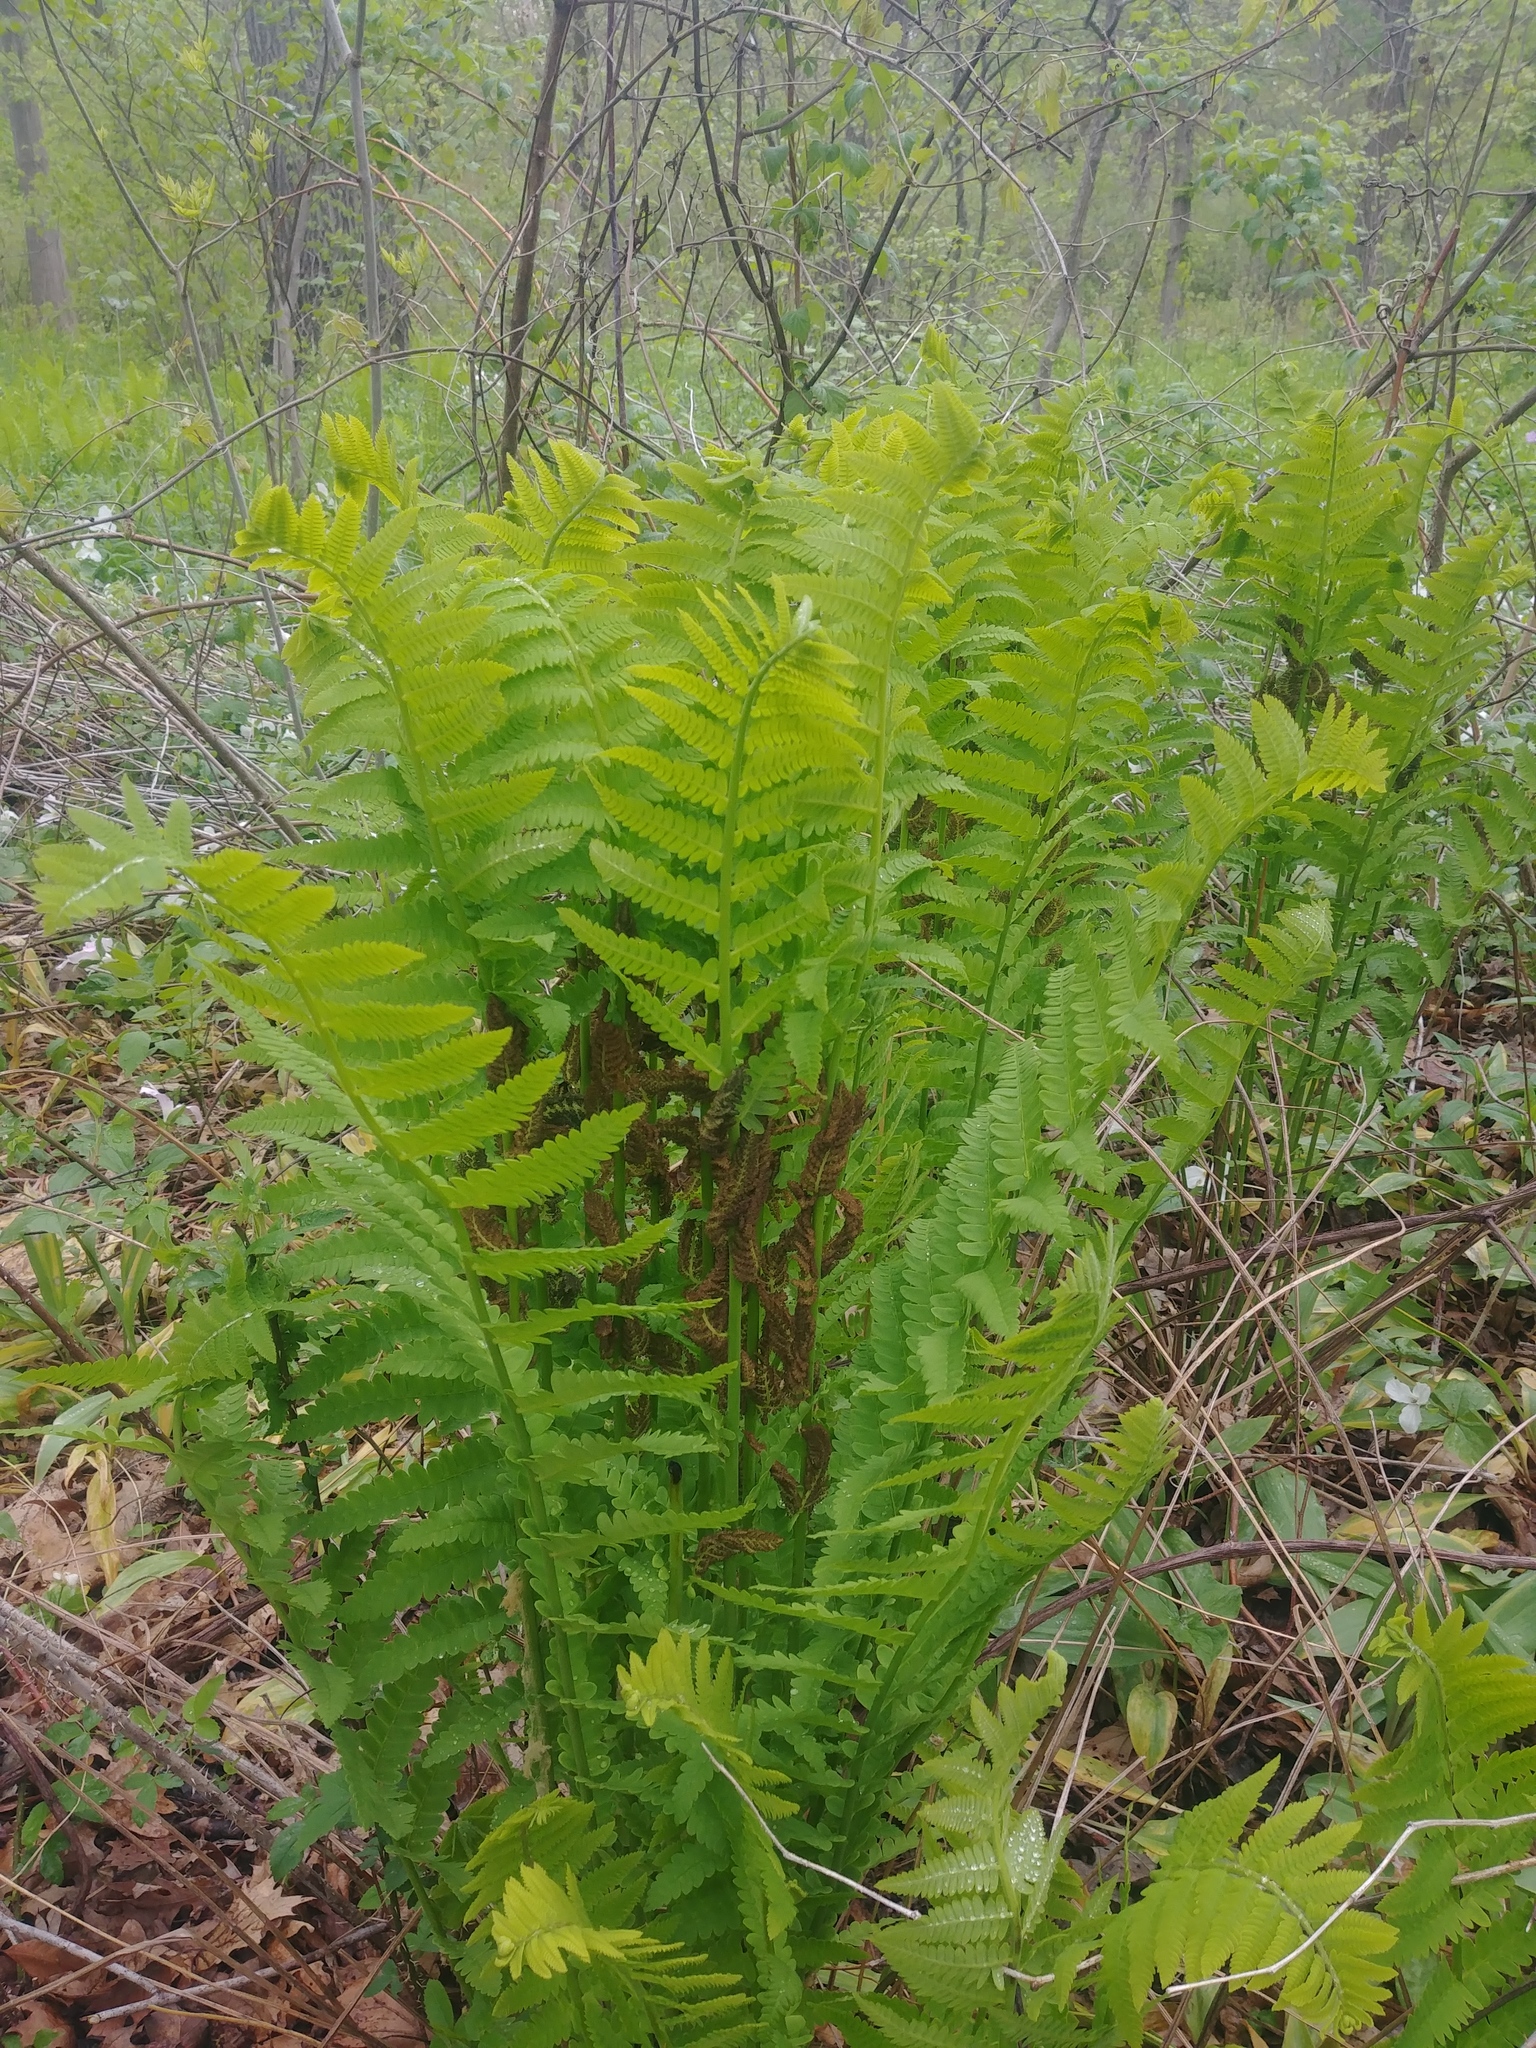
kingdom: Plantae
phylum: Tracheophyta
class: Polypodiopsida
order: Osmundales
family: Osmundaceae
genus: Claytosmunda
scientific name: Claytosmunda claytoniana
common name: Clayton's fern
